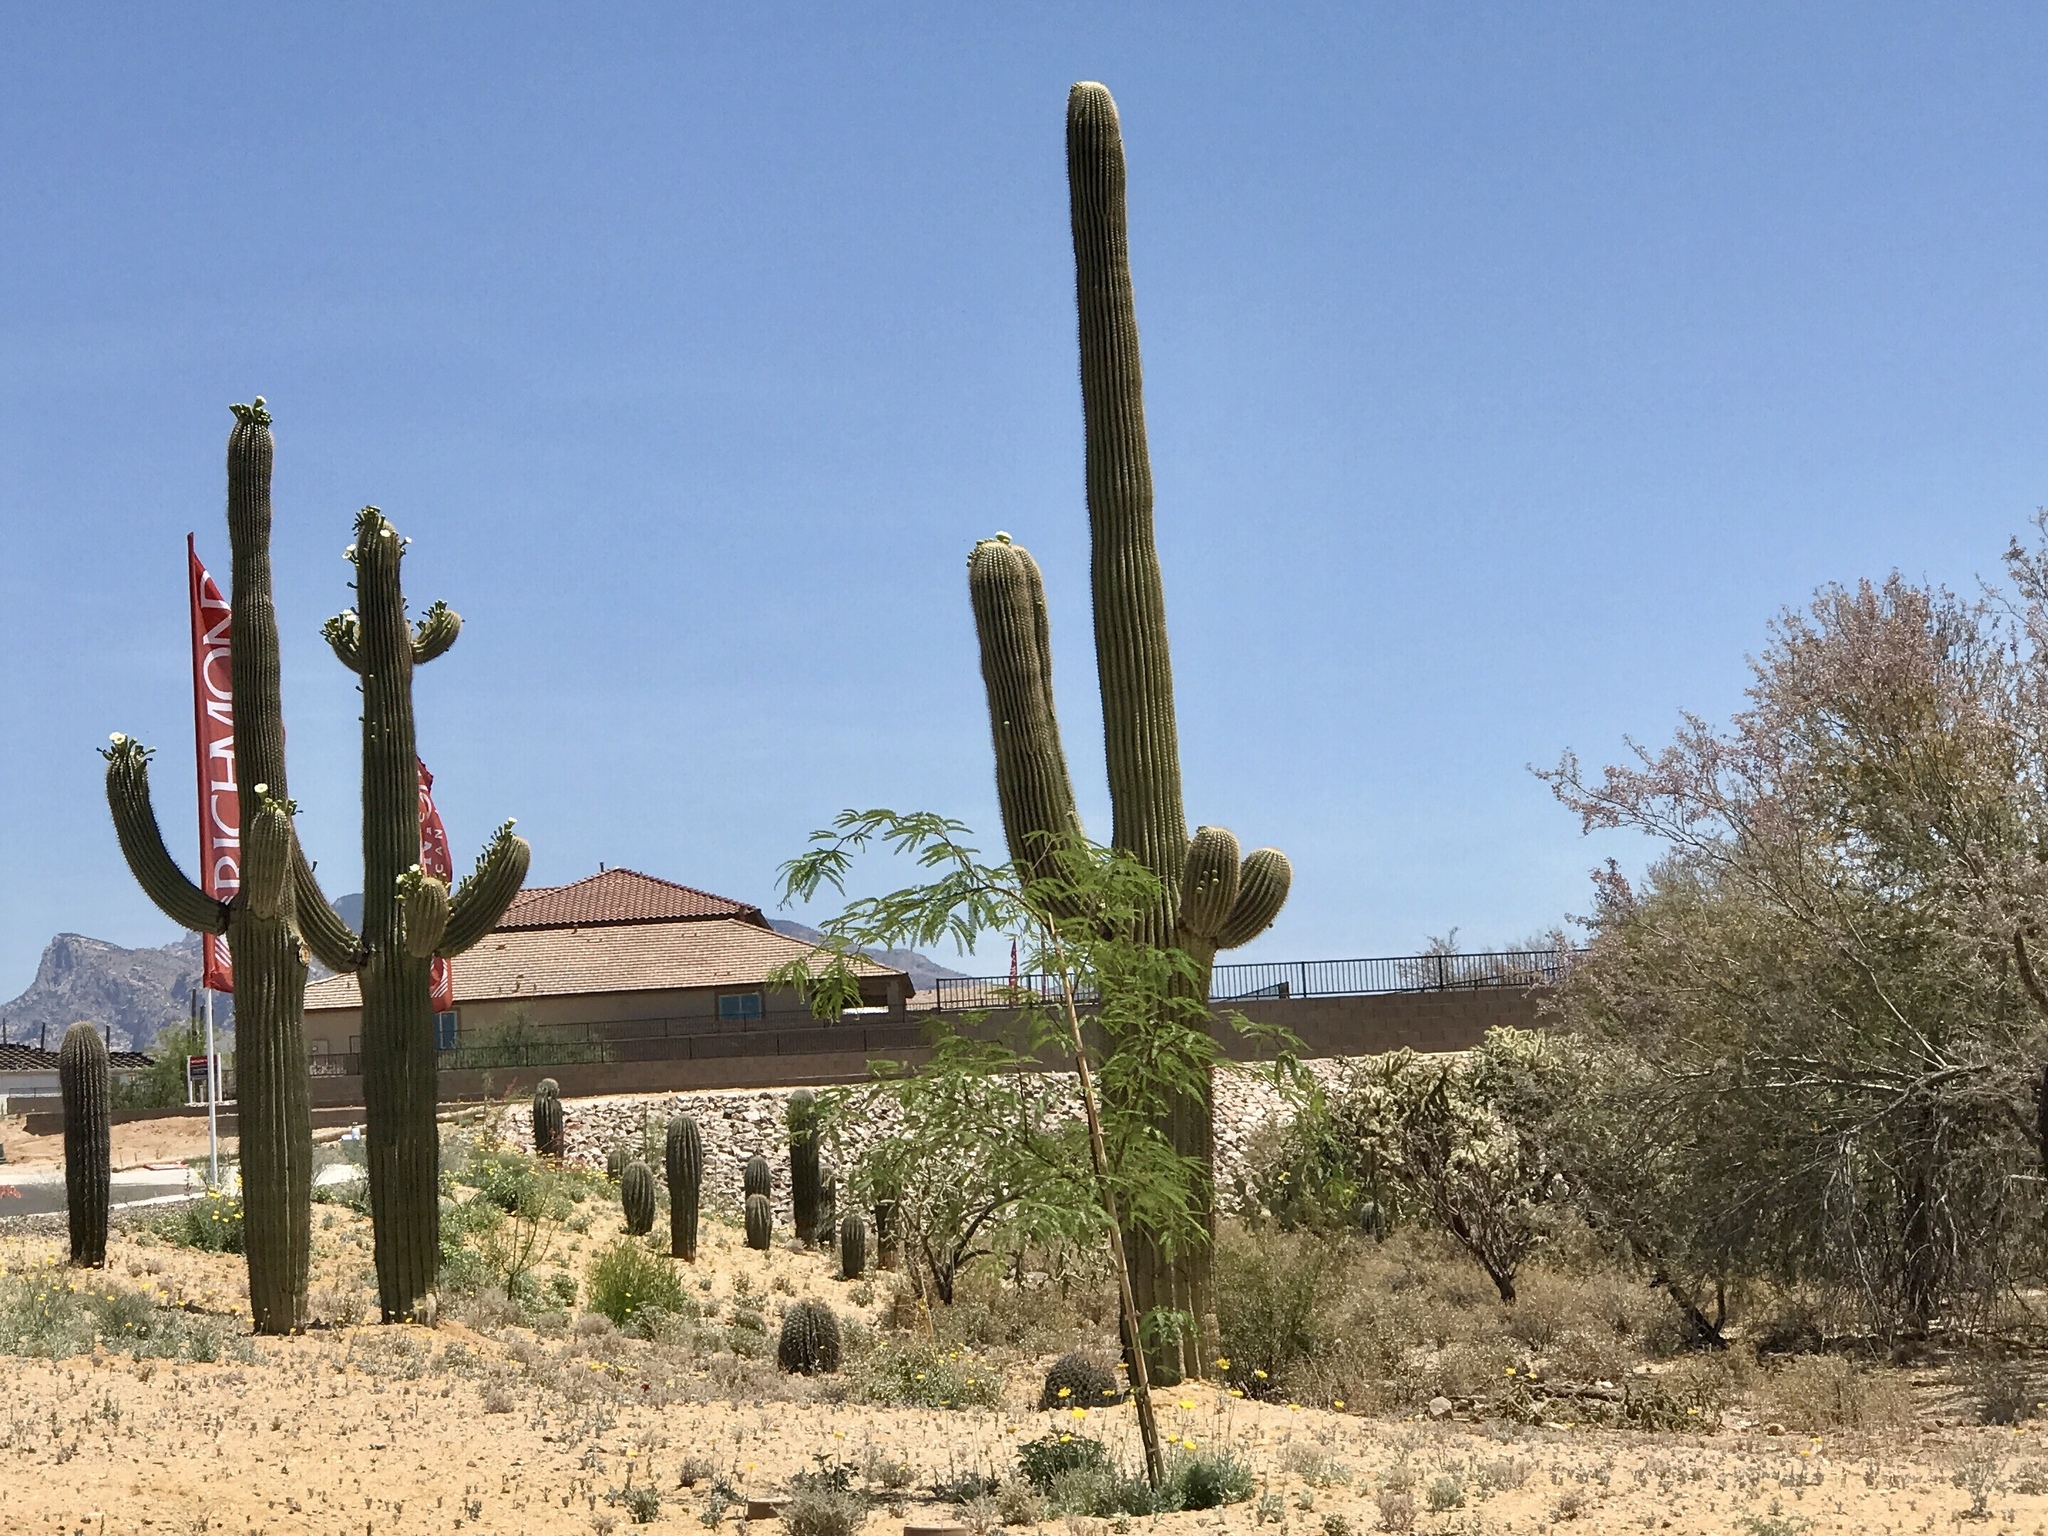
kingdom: Plantae
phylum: Tracheophyta
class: Magnoliopsida
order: Caryophyllales
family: Cactaceae
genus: Carnegiea
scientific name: Carnegiea gigantea
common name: Saguaro
